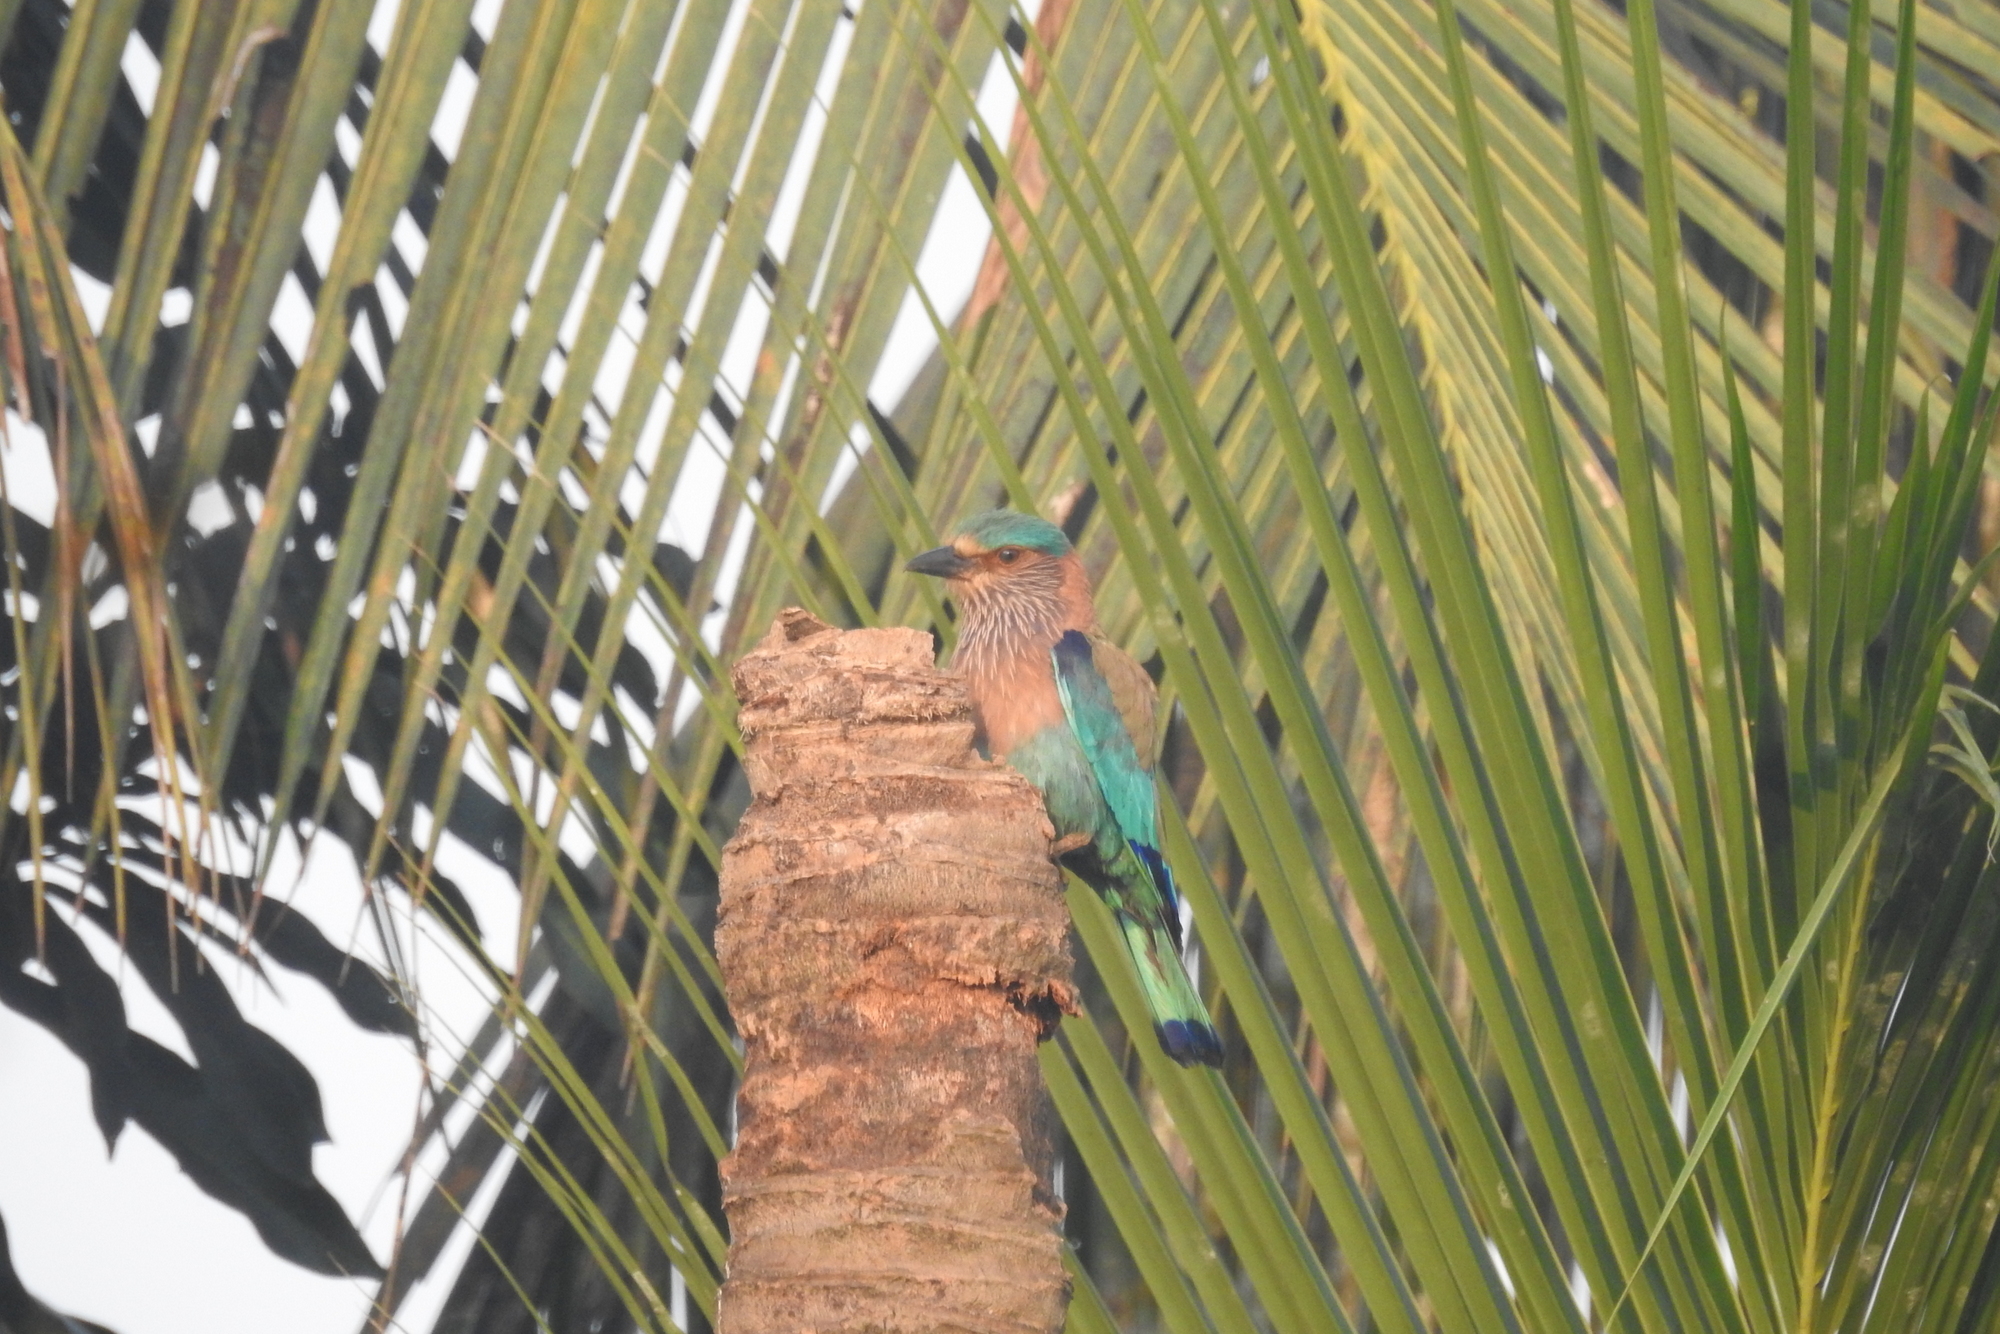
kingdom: Animalia
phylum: Chordata
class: Aves
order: Coraciiformes
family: Coraciidae
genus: Coracias
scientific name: Coracias benghalensis
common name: Indian roller
